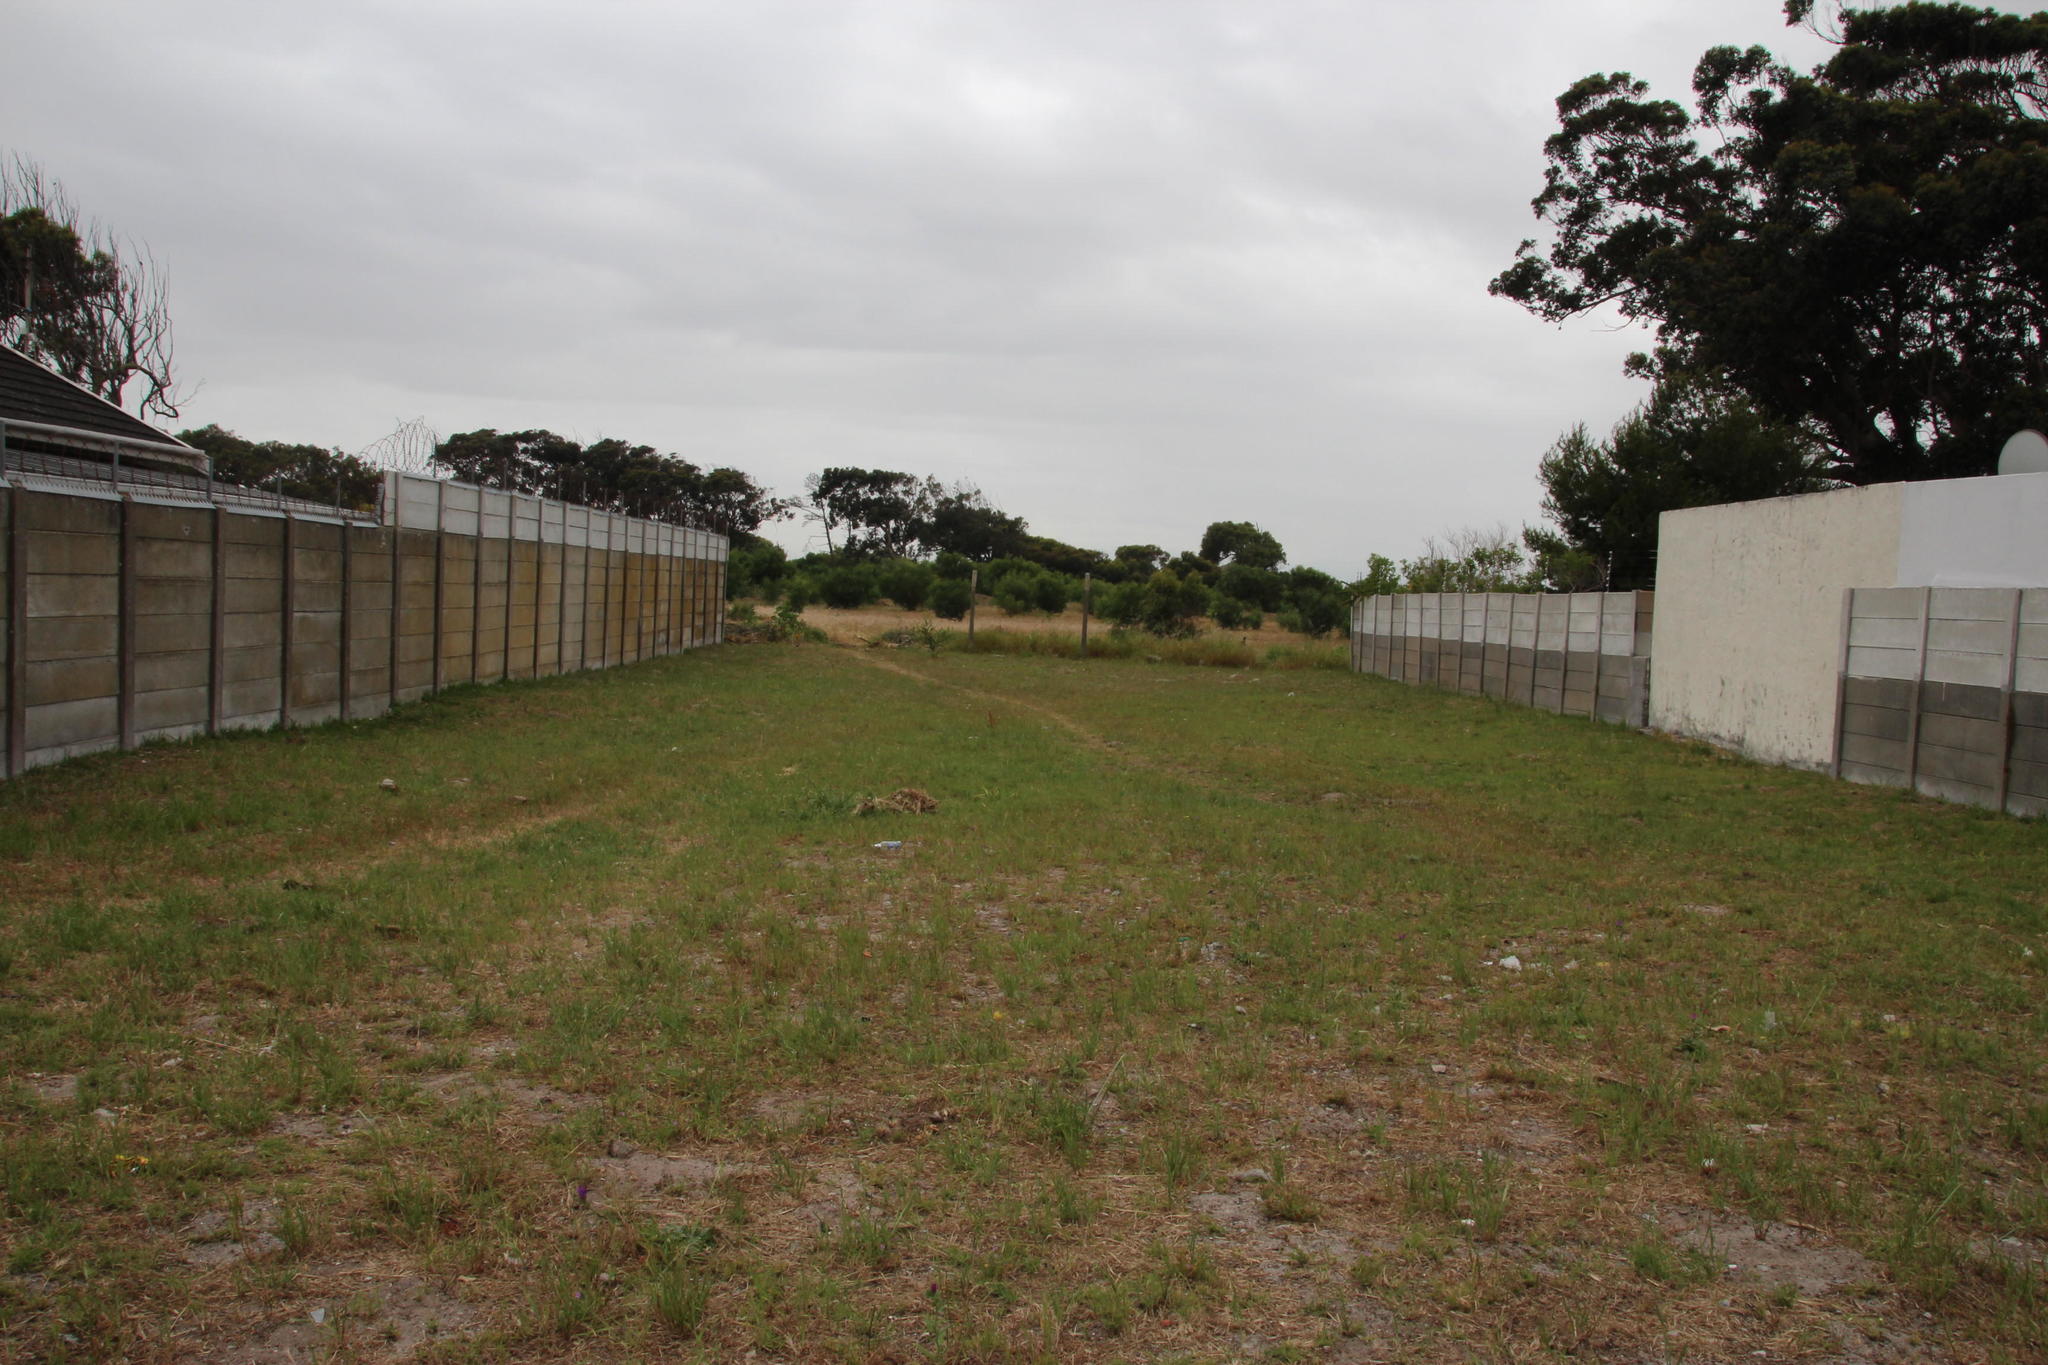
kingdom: Plantae
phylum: Tracheophyta
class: Liliopsida
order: Poales
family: Poaceae
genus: Stenotaphrum
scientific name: Stenotaphrum secundatum
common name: St. augustine grass
